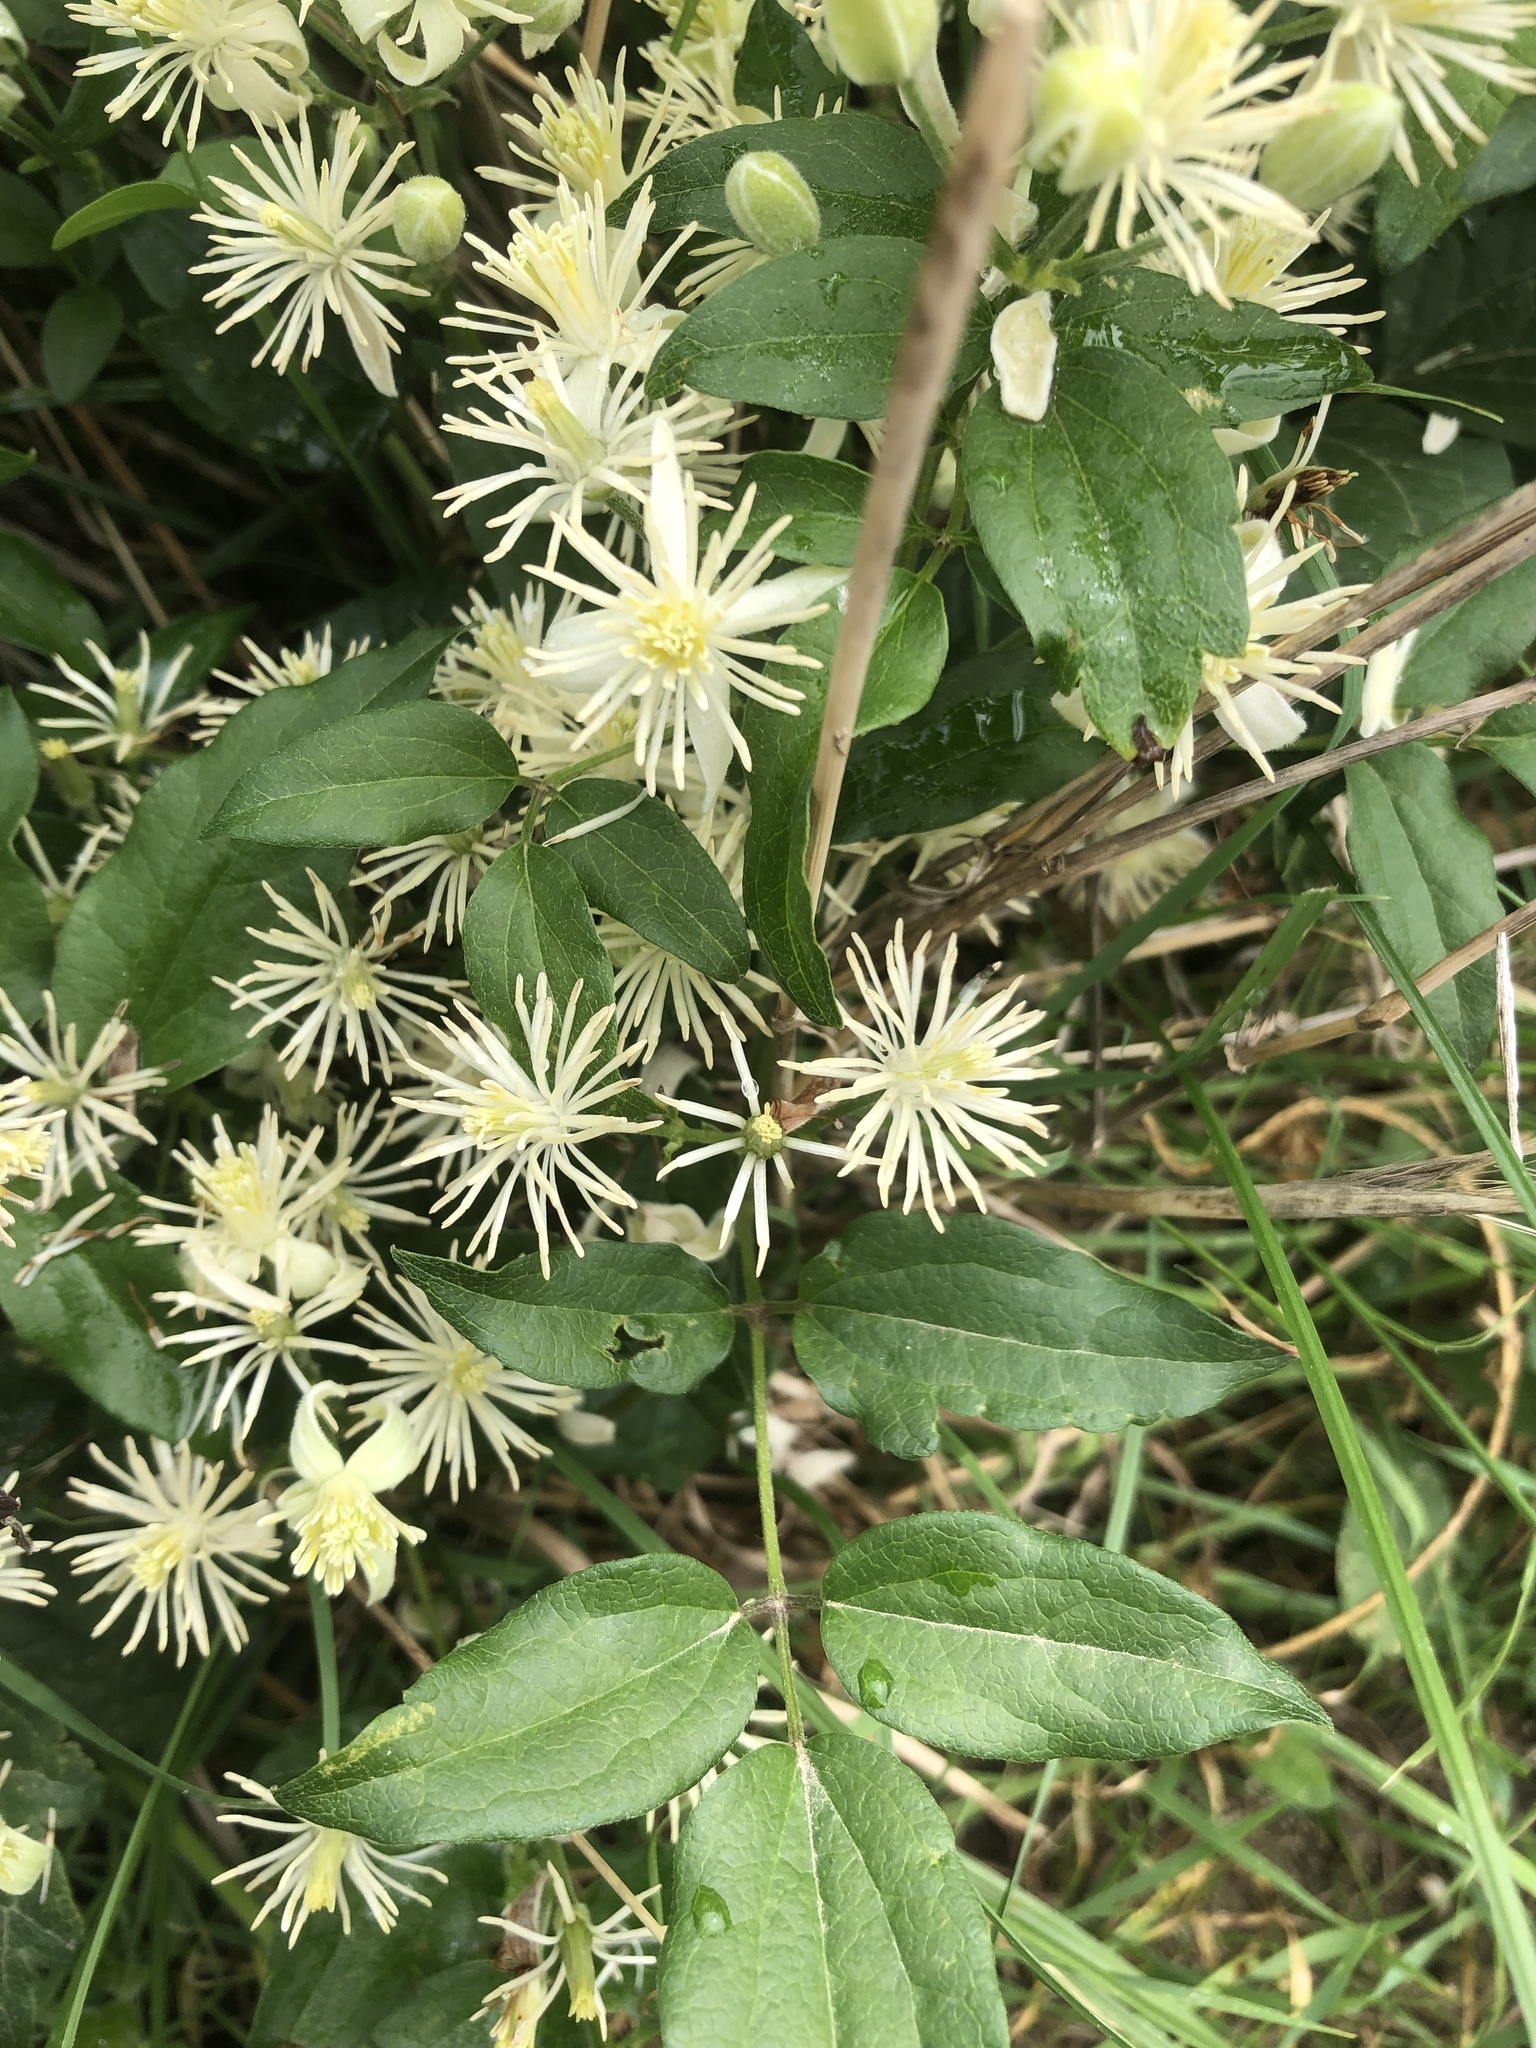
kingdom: Plantae
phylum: Tracheophyta
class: Magnoliopsida
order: Ranunculales
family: Ranunculaceae
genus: Clematis
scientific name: Clematis vitalba
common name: Evergreen clematis
